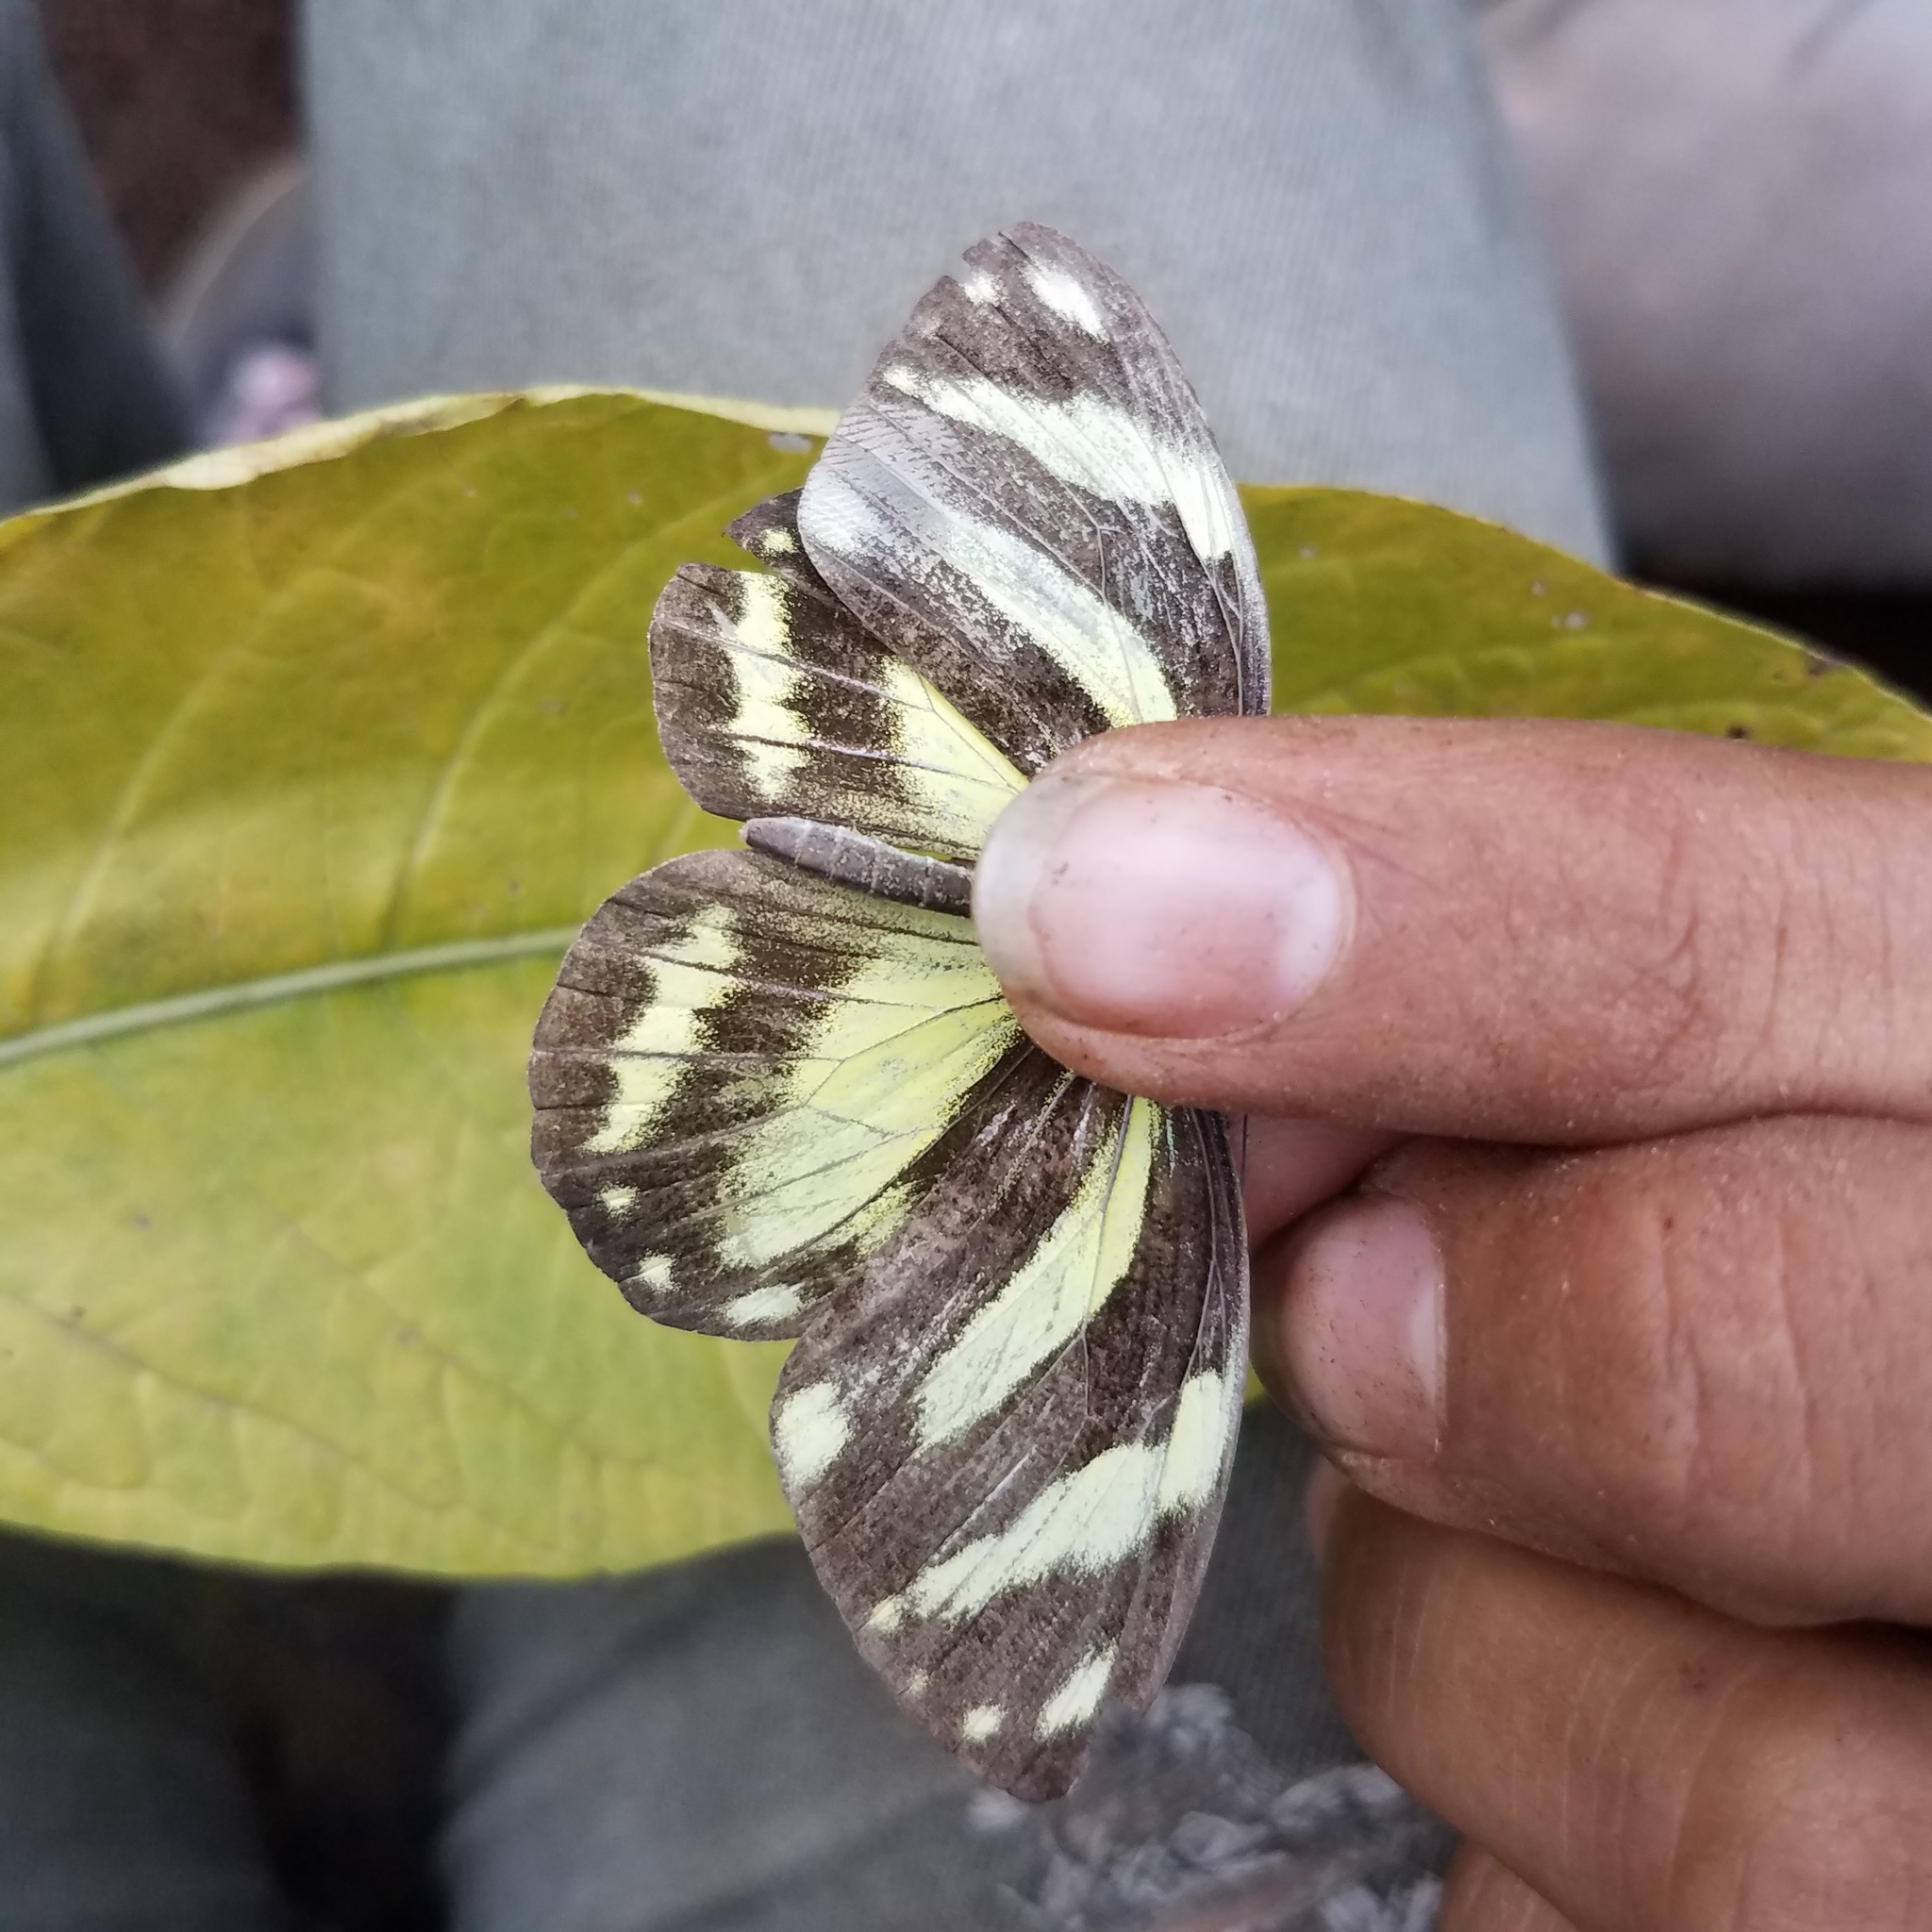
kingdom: Animalia
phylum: Arthropoda
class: Insecta
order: Lepidoptera
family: Pieridae
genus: Pieriballia
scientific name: Pieriballia viardi
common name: Painted white
